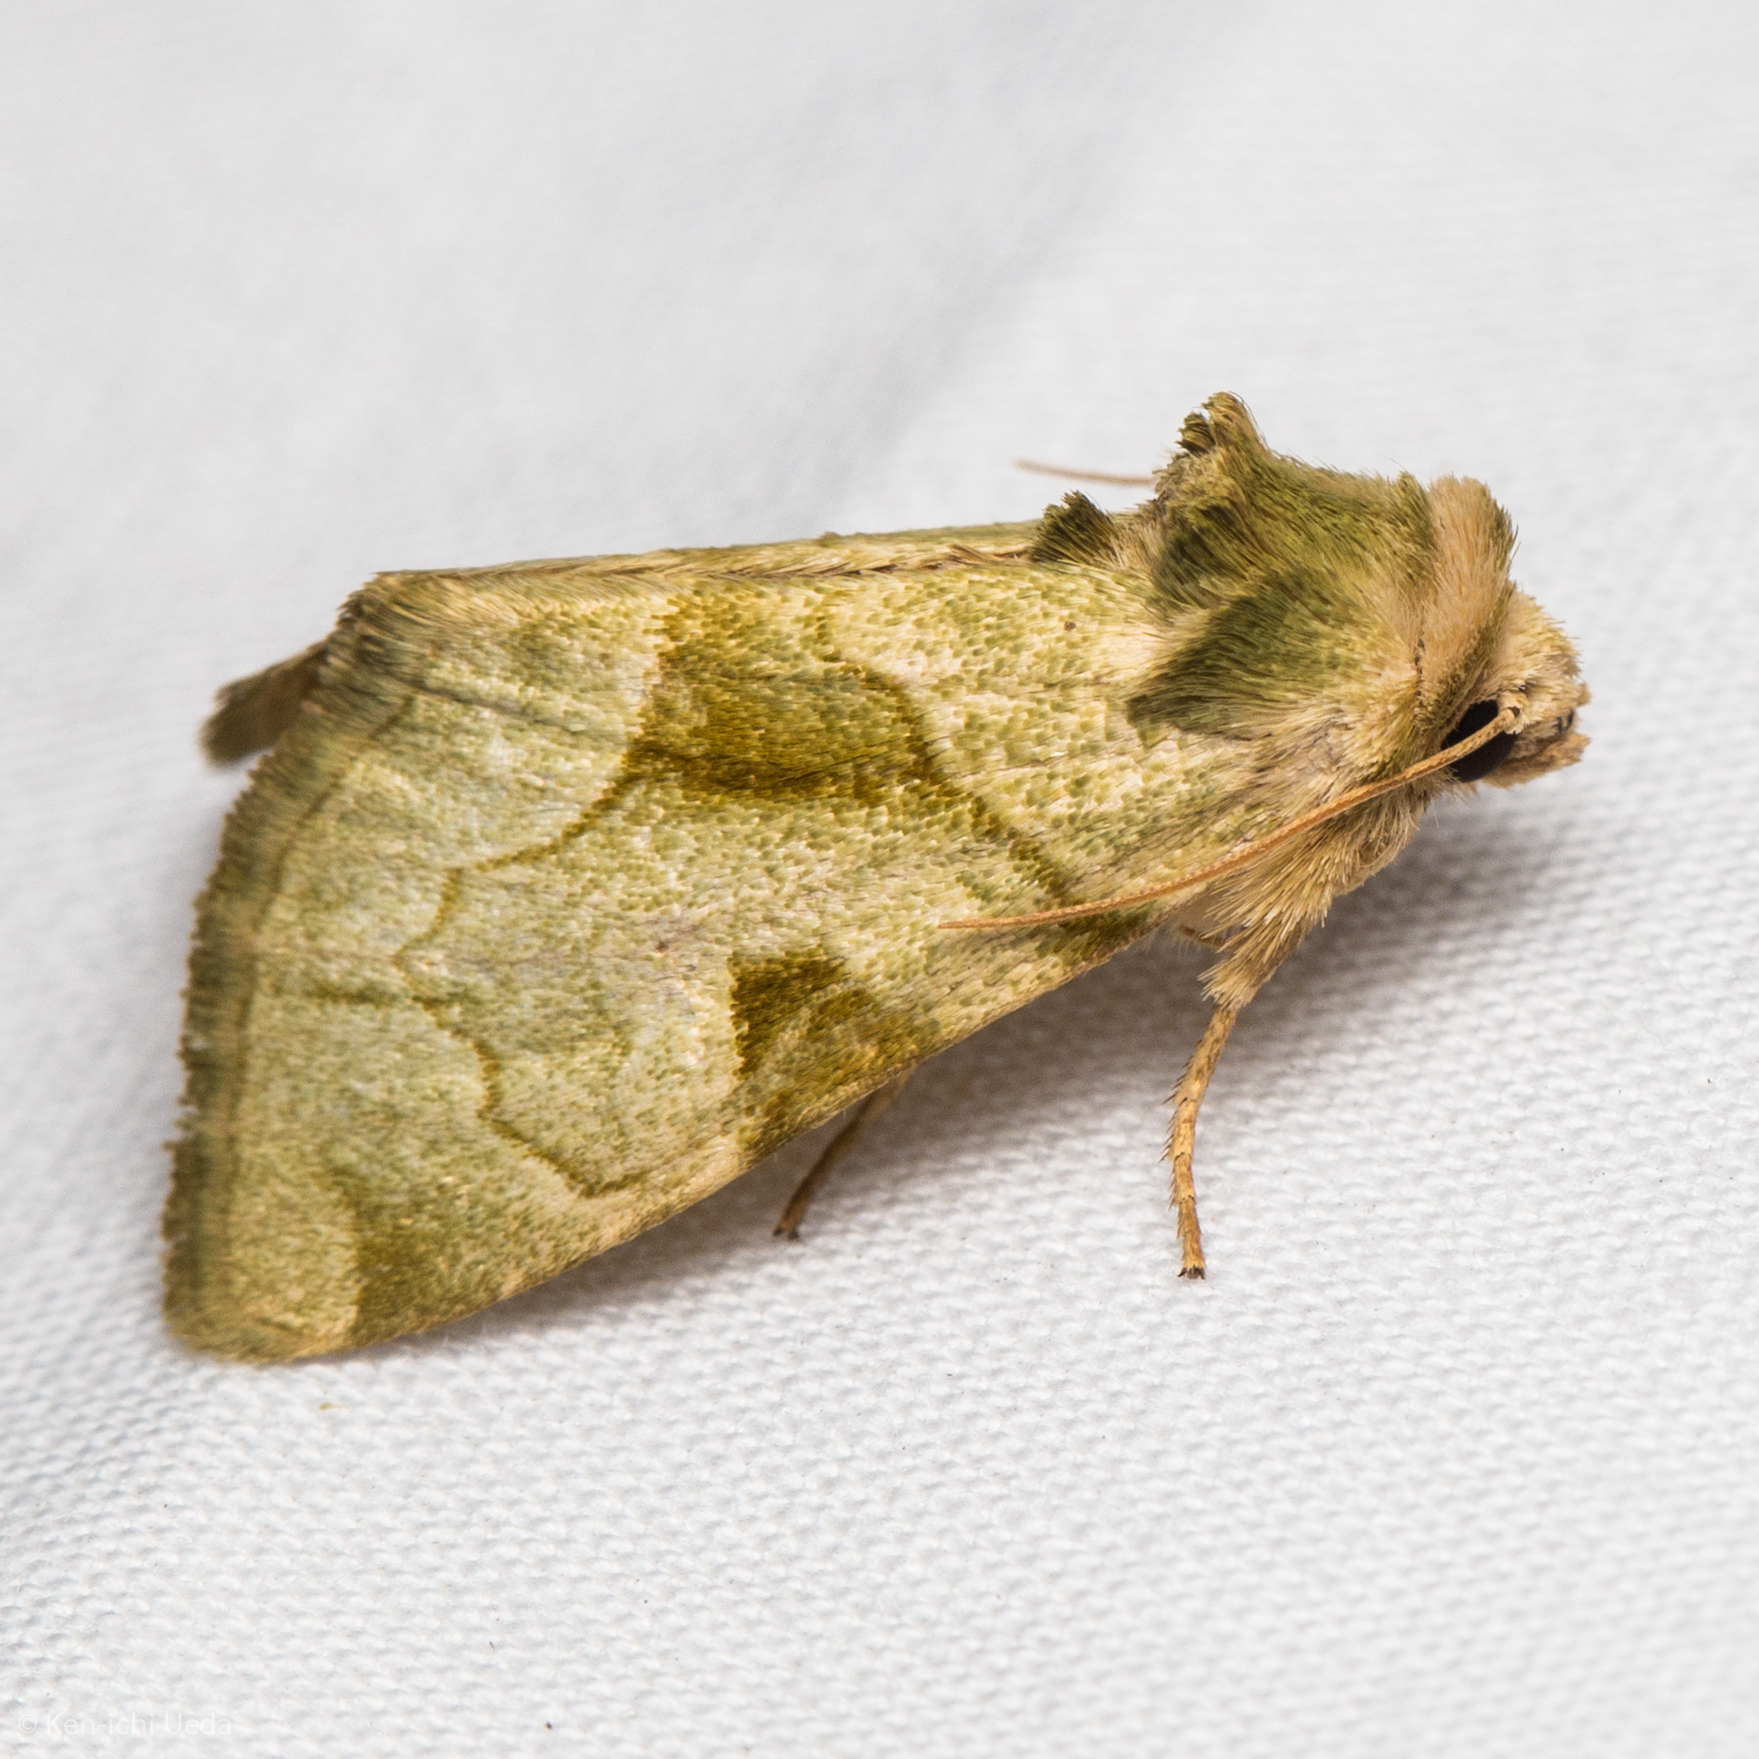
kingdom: Animalia
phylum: Arthropoda
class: Insecta
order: Lepidoptera
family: Noctuidae
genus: Oslaria
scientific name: Oslaria viridifera
